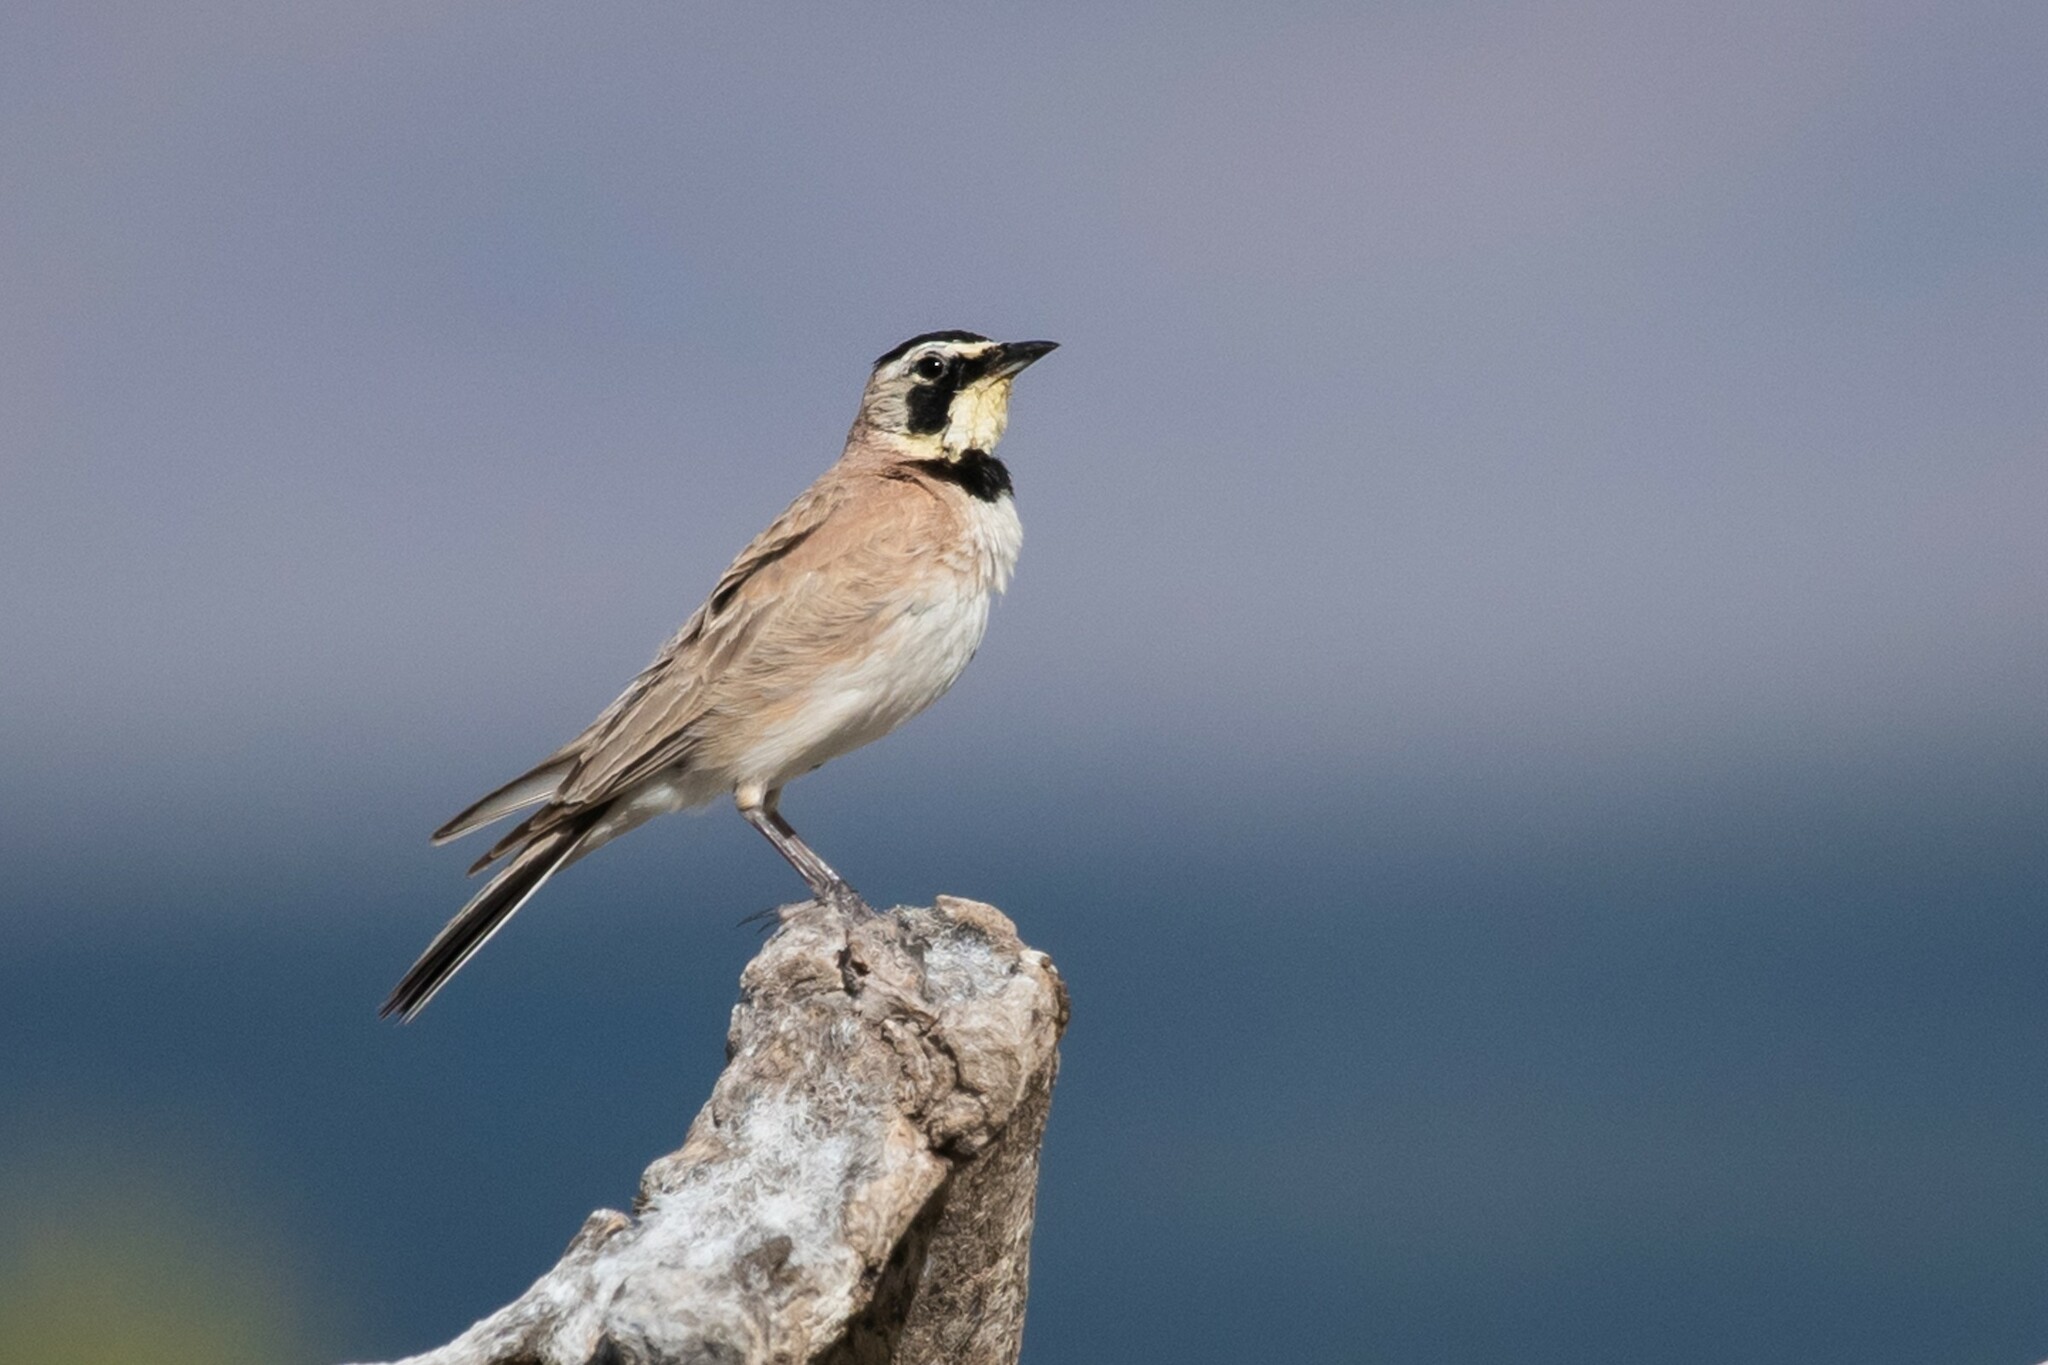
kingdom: Animalia
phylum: Chordata
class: Aves
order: Passeriformes
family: Alaudidae
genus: Eremophila
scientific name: Eremophila alpestris
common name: Horned lark
